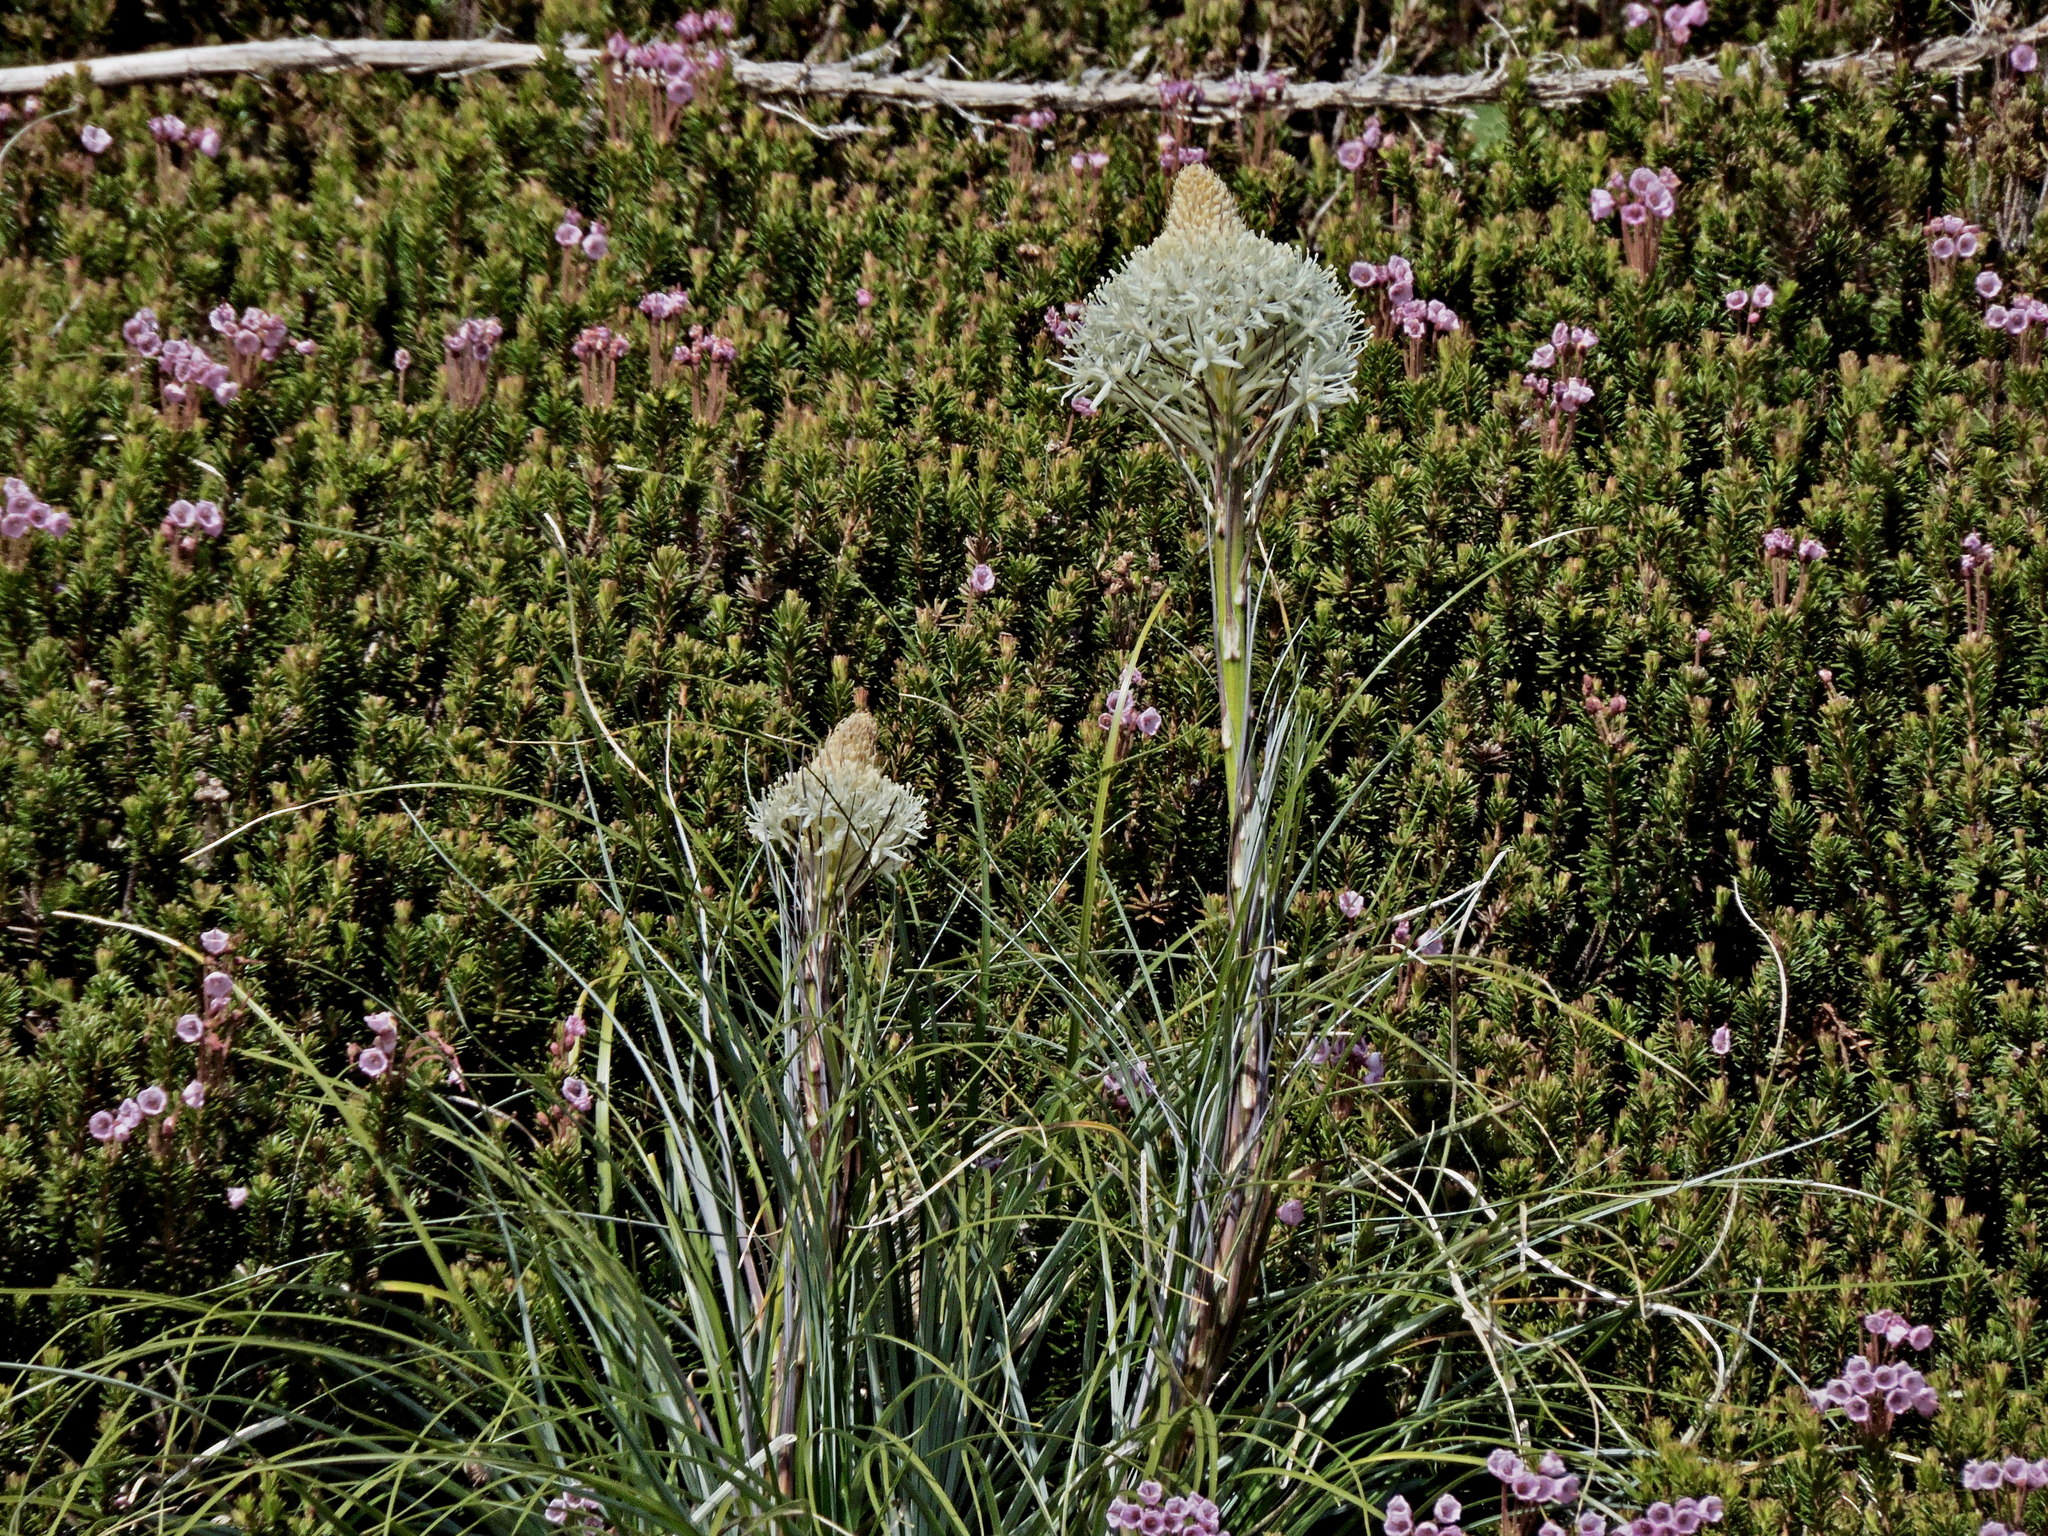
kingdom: Plantae
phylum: Tracheophyta
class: Liliopsida
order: Liliales
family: Melanthiaceae
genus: Xerophyllum
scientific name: Xerophyllum tenax
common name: Bear-grass
